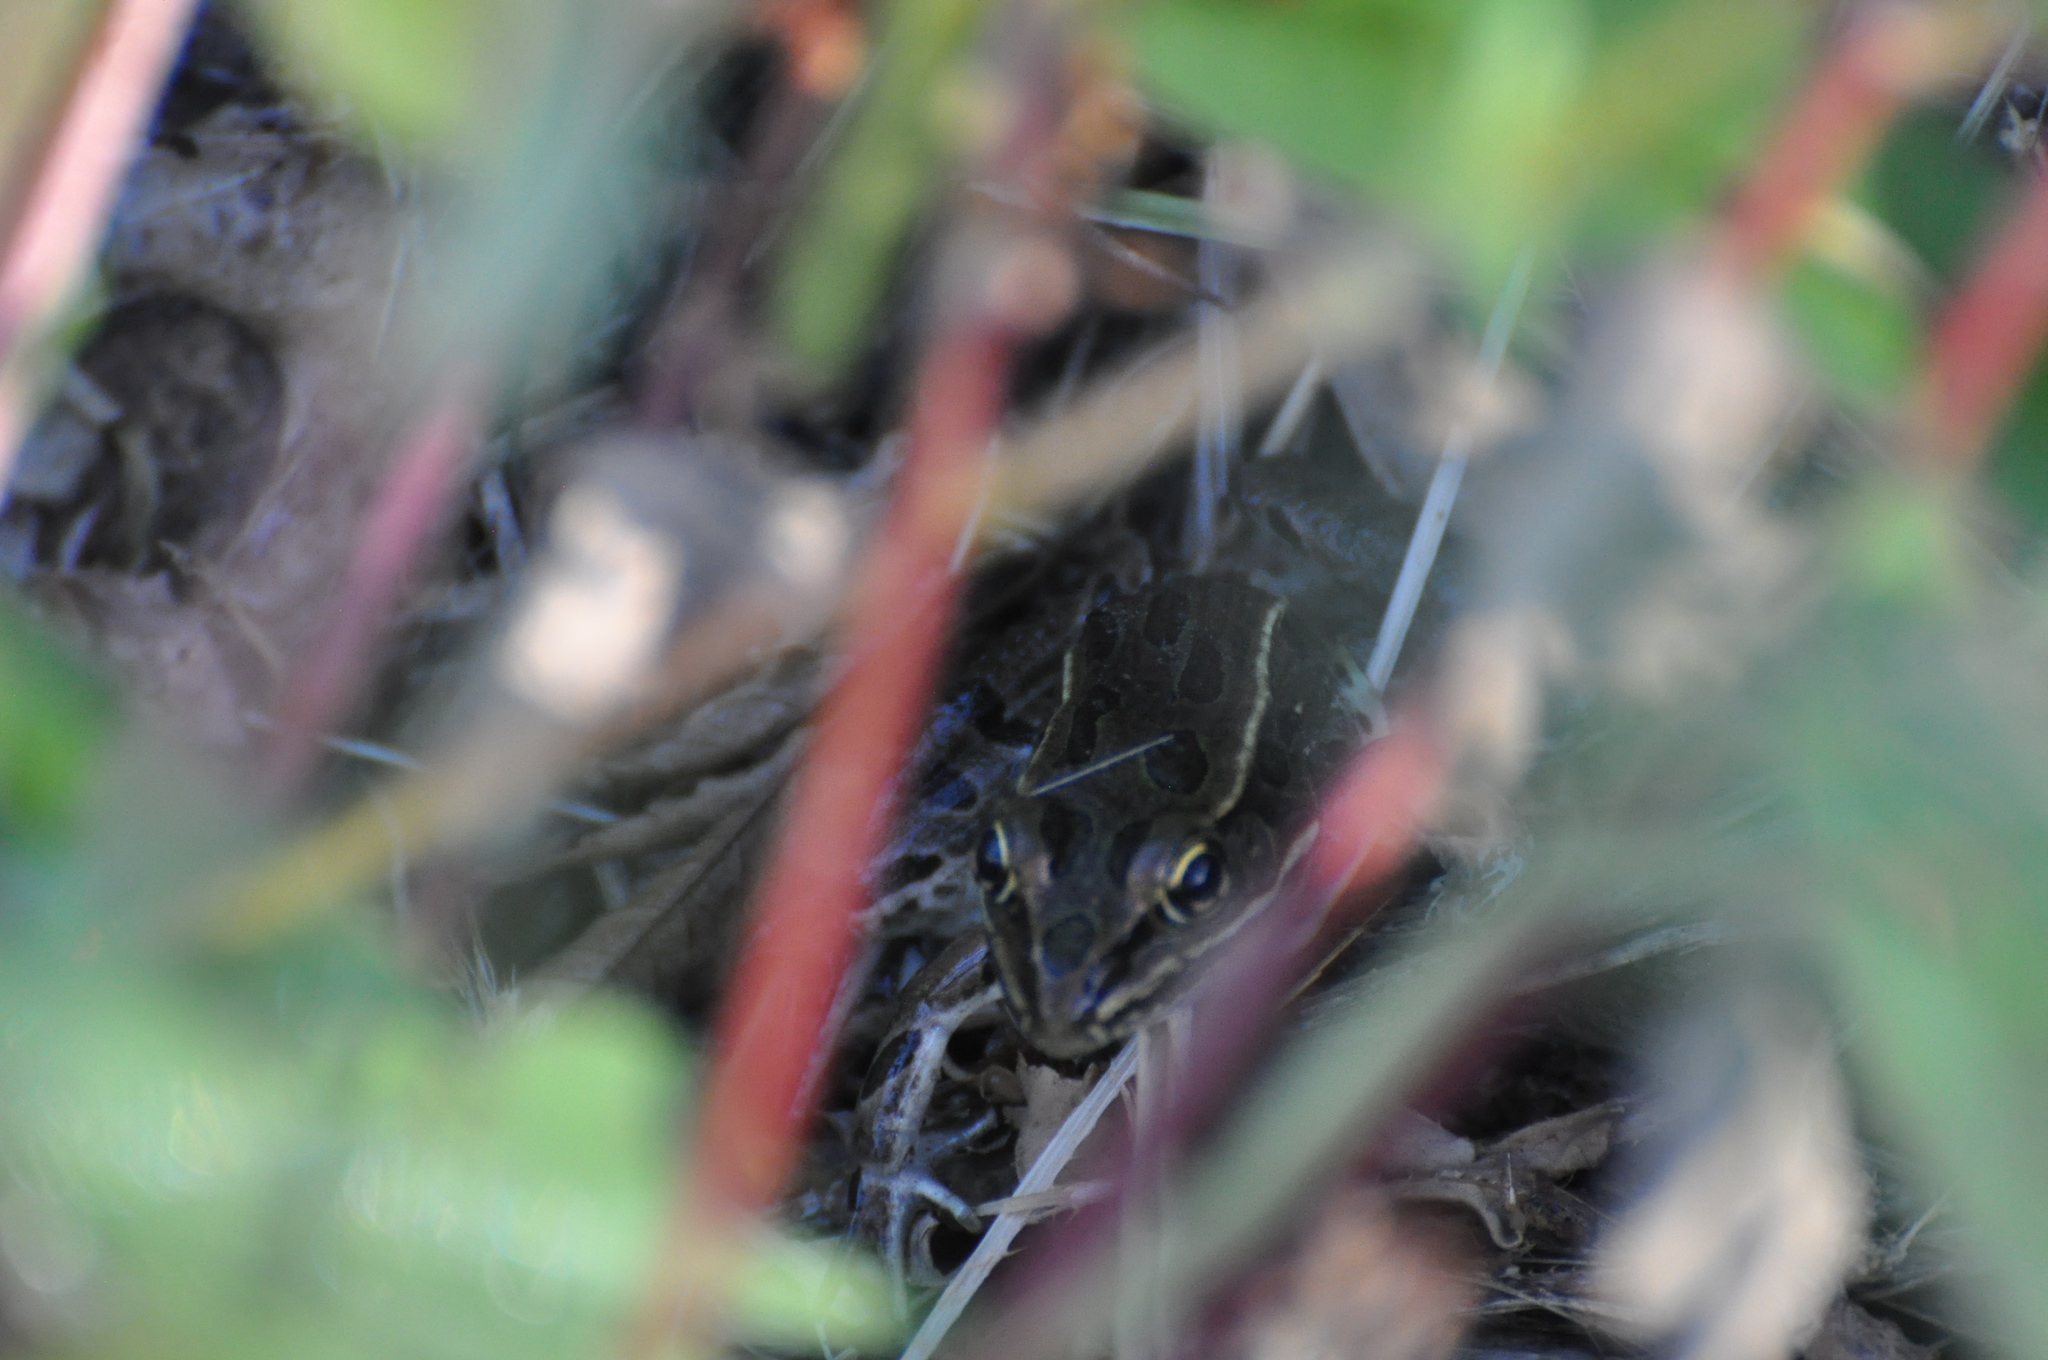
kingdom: Animalia
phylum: Chordata
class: Amphibia
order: Anura
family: Ranidae
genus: Lithobates
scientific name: Lithobates pipiens
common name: Northern leopard frog
